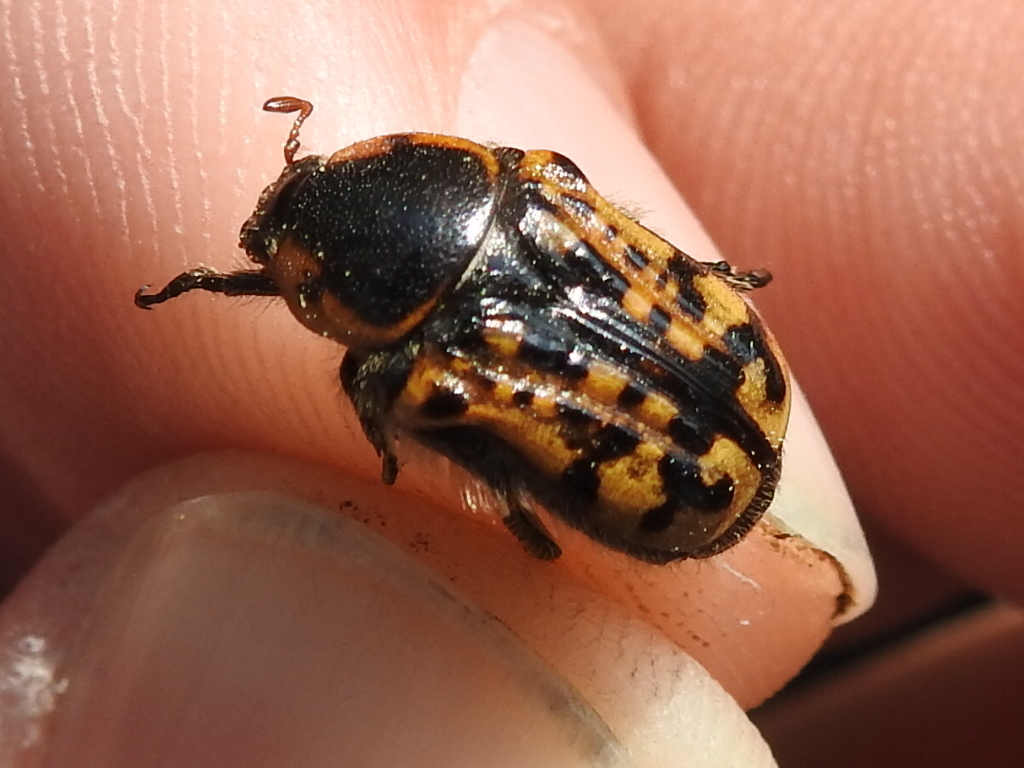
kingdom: Animalia
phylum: Arthropoda
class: Insecta
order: Coleoptera
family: Scarabaeidae
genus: Euphoria
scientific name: Euphoria kernii
